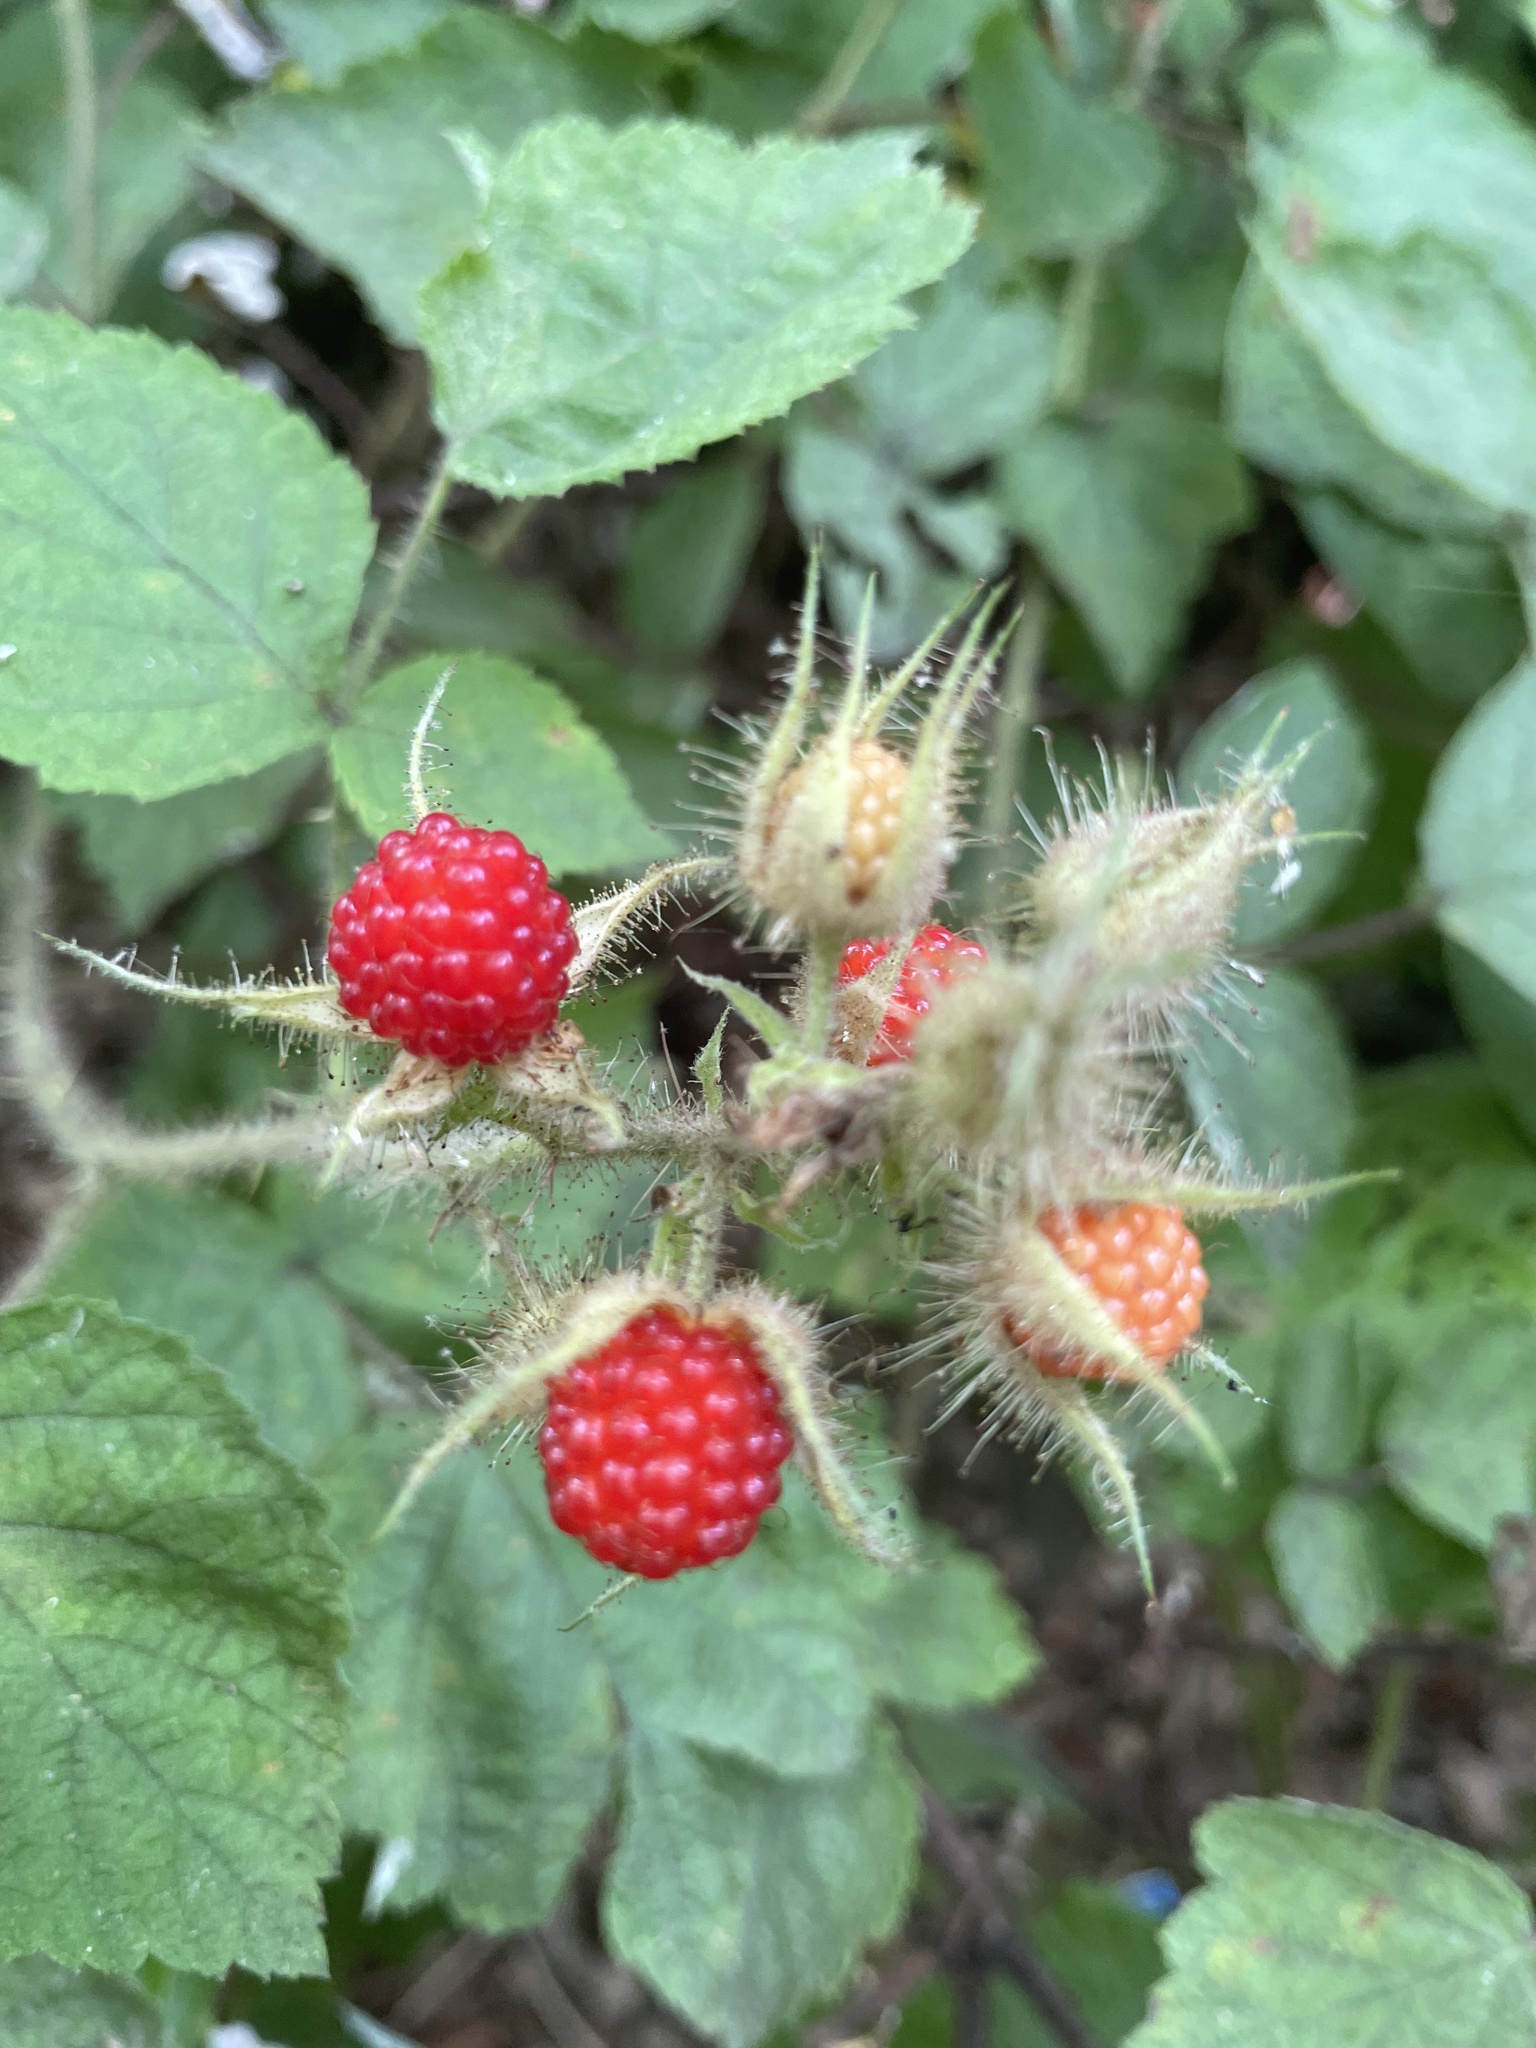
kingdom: Plantae
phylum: Tracheophyta
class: Magnoliopsida
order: Rosales
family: Rosaceae
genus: Rubus
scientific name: Rubus phoenicolasius
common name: Japanese wineberry
